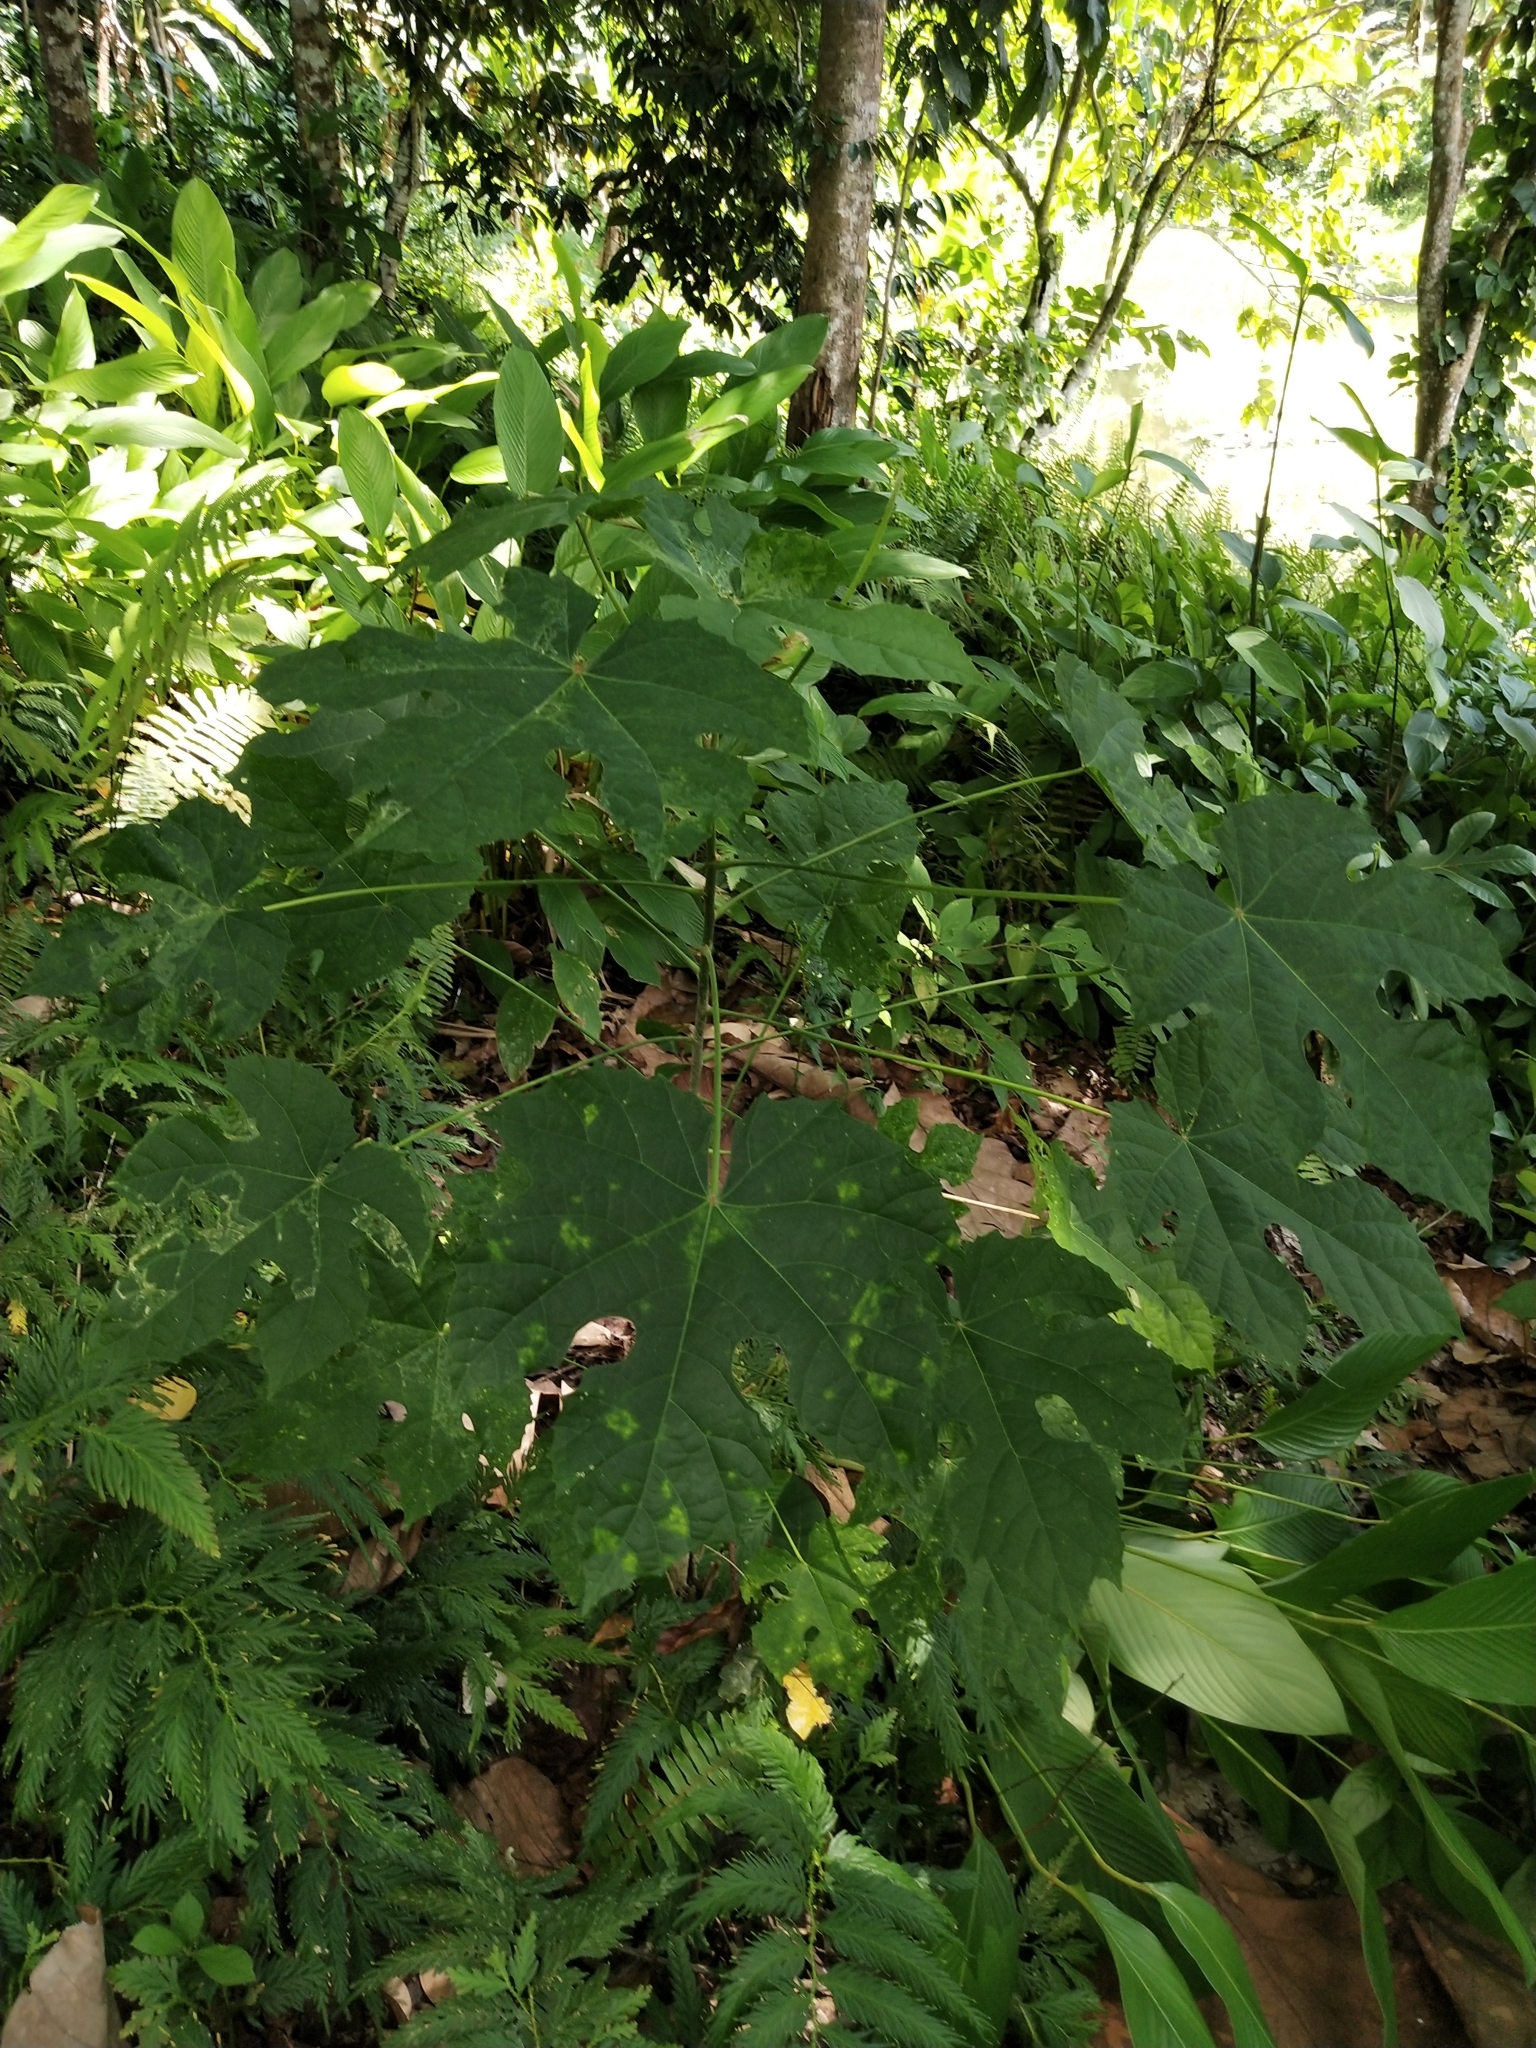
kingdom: Plantae
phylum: Tracheophyta
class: Magnoliopsida
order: Malpighiales
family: Euphorbiaceae
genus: Melanolepis
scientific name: Melanolepis multiglandulosa
